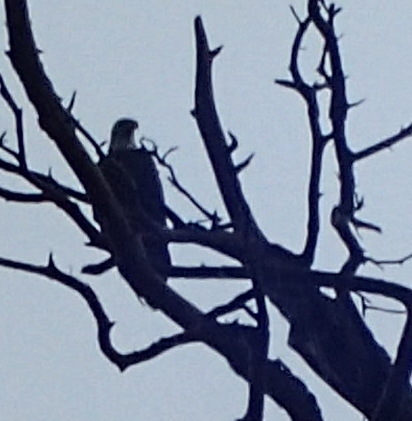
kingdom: Animalia
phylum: Chordata
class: Aves
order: Accipitriformes
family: Accipitridae
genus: Haliaeetus
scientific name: Haliaeetus leucocephalus
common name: Bald eagle
